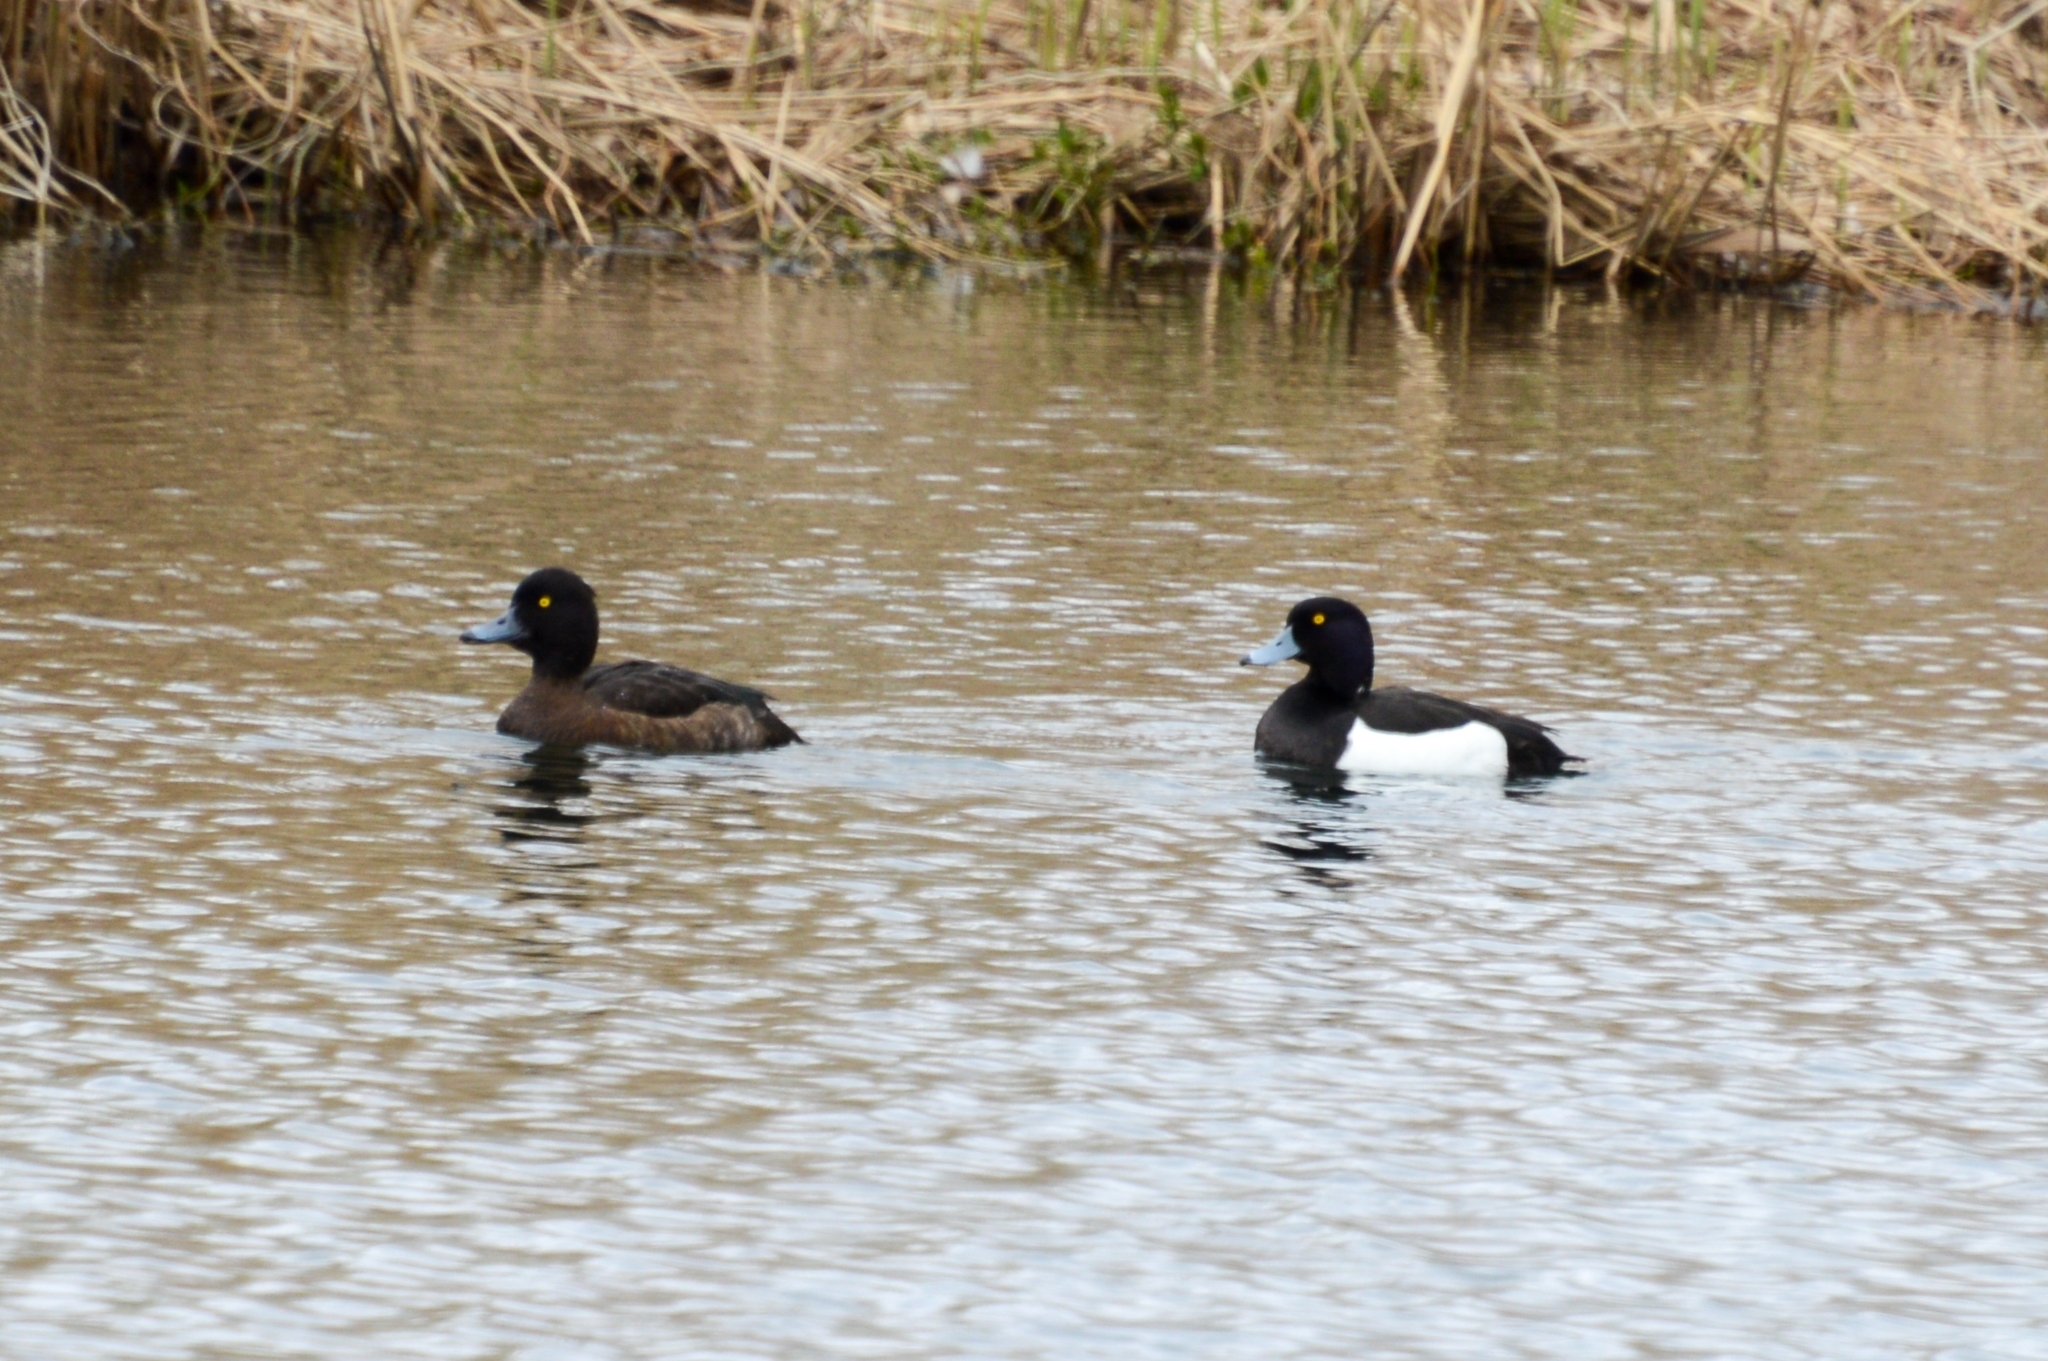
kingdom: Animalia
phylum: Chordata
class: Aves
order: Anseriformes
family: Anatidae
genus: Aythya
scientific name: Aythya fuligula
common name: Tufted duck
